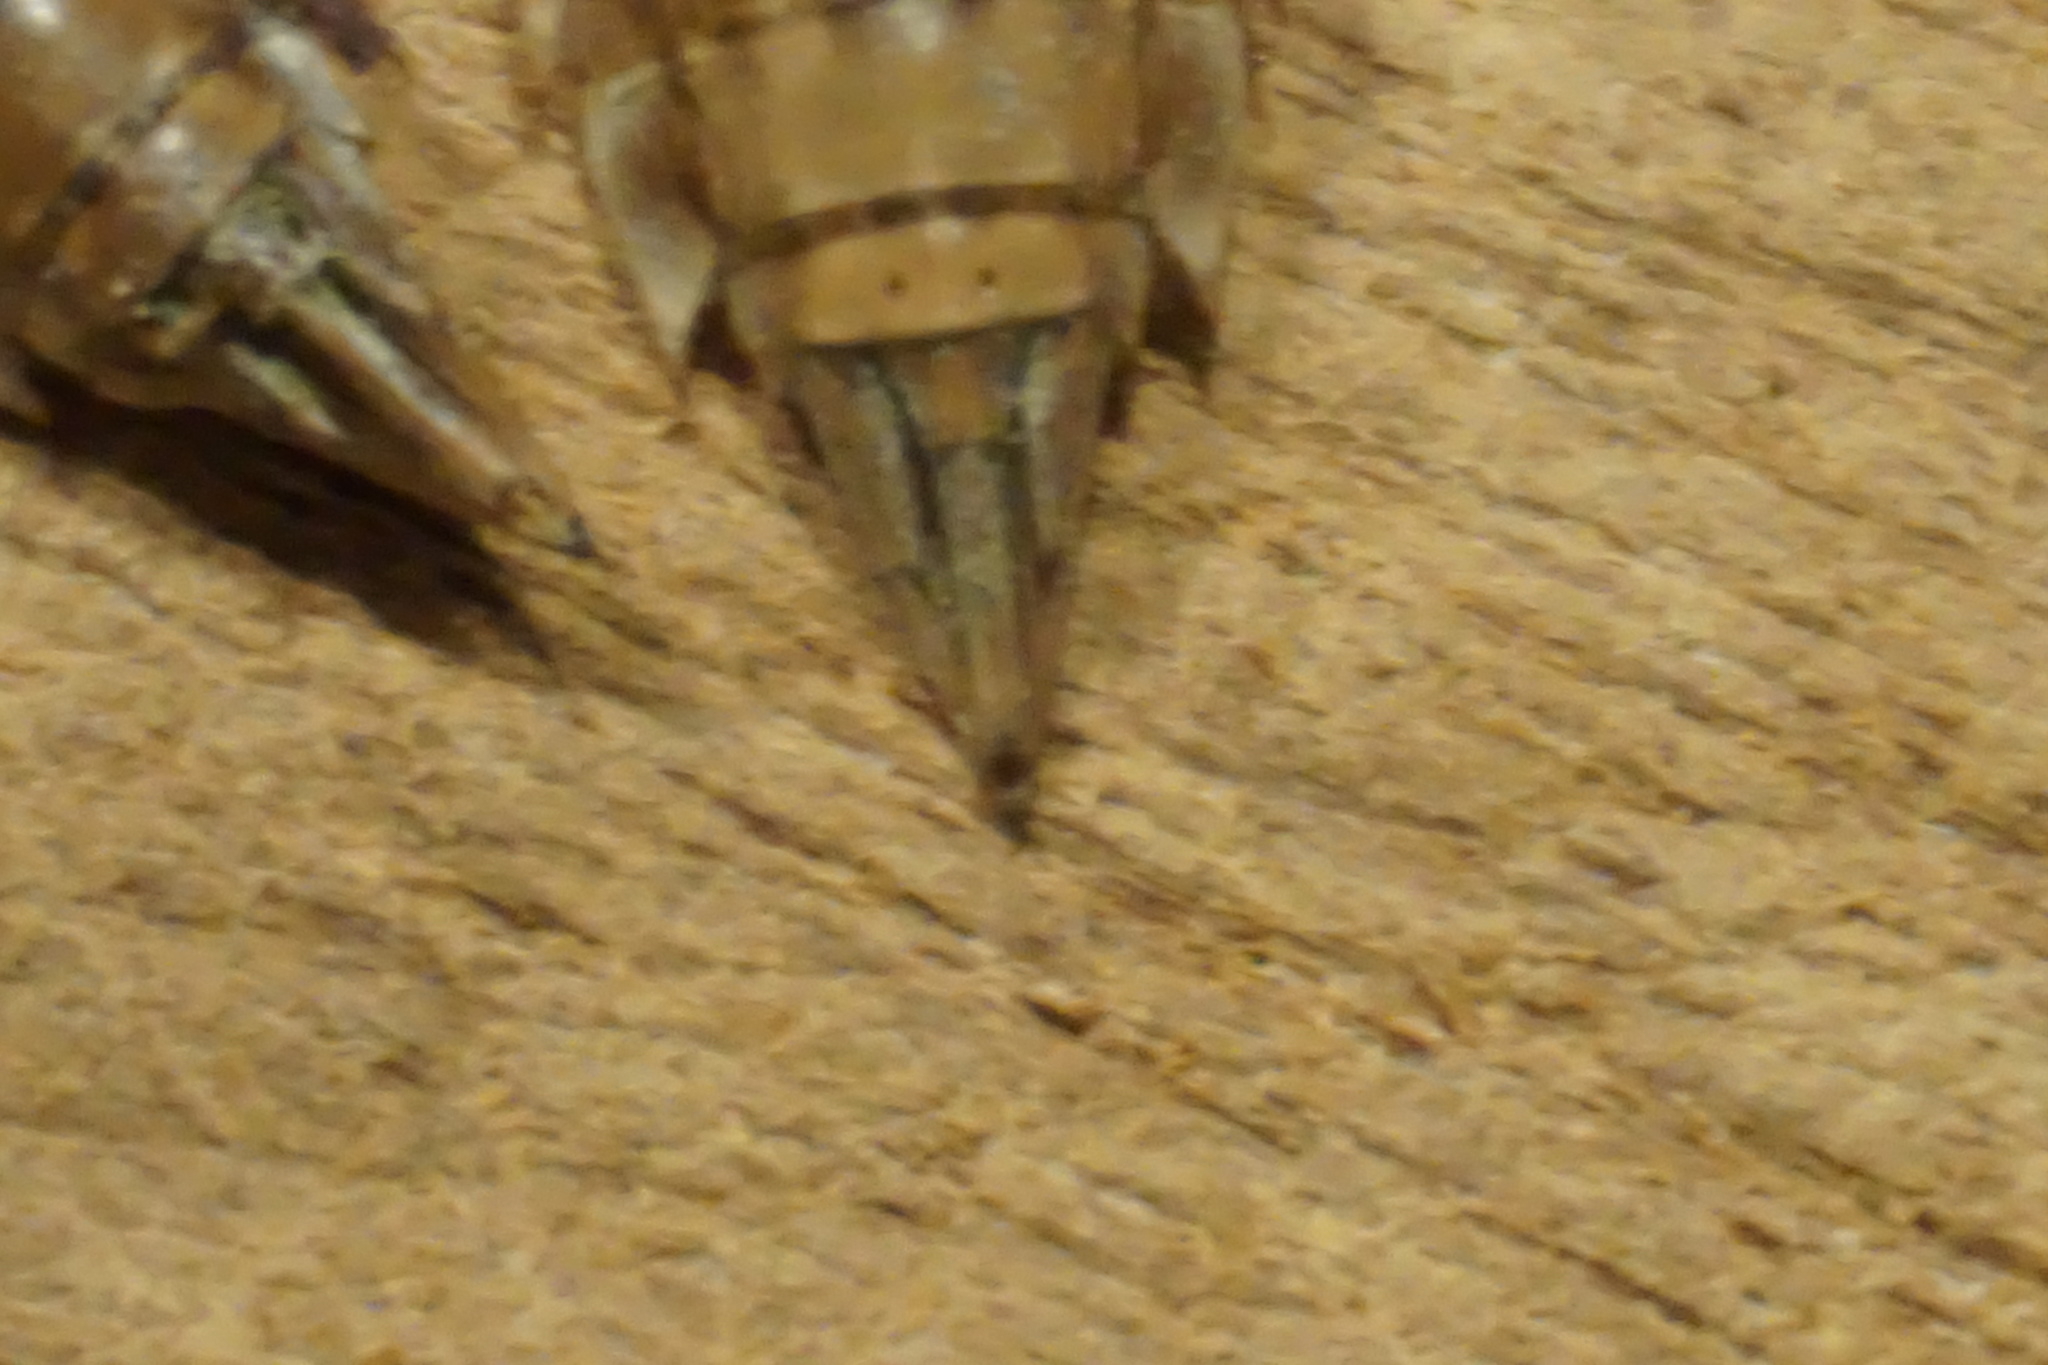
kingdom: Animalia
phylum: Arthropoda
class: Insecta
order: Odonata
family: Aeshnidae
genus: Anax
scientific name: Anax imperator
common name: Emperor dragonfly
